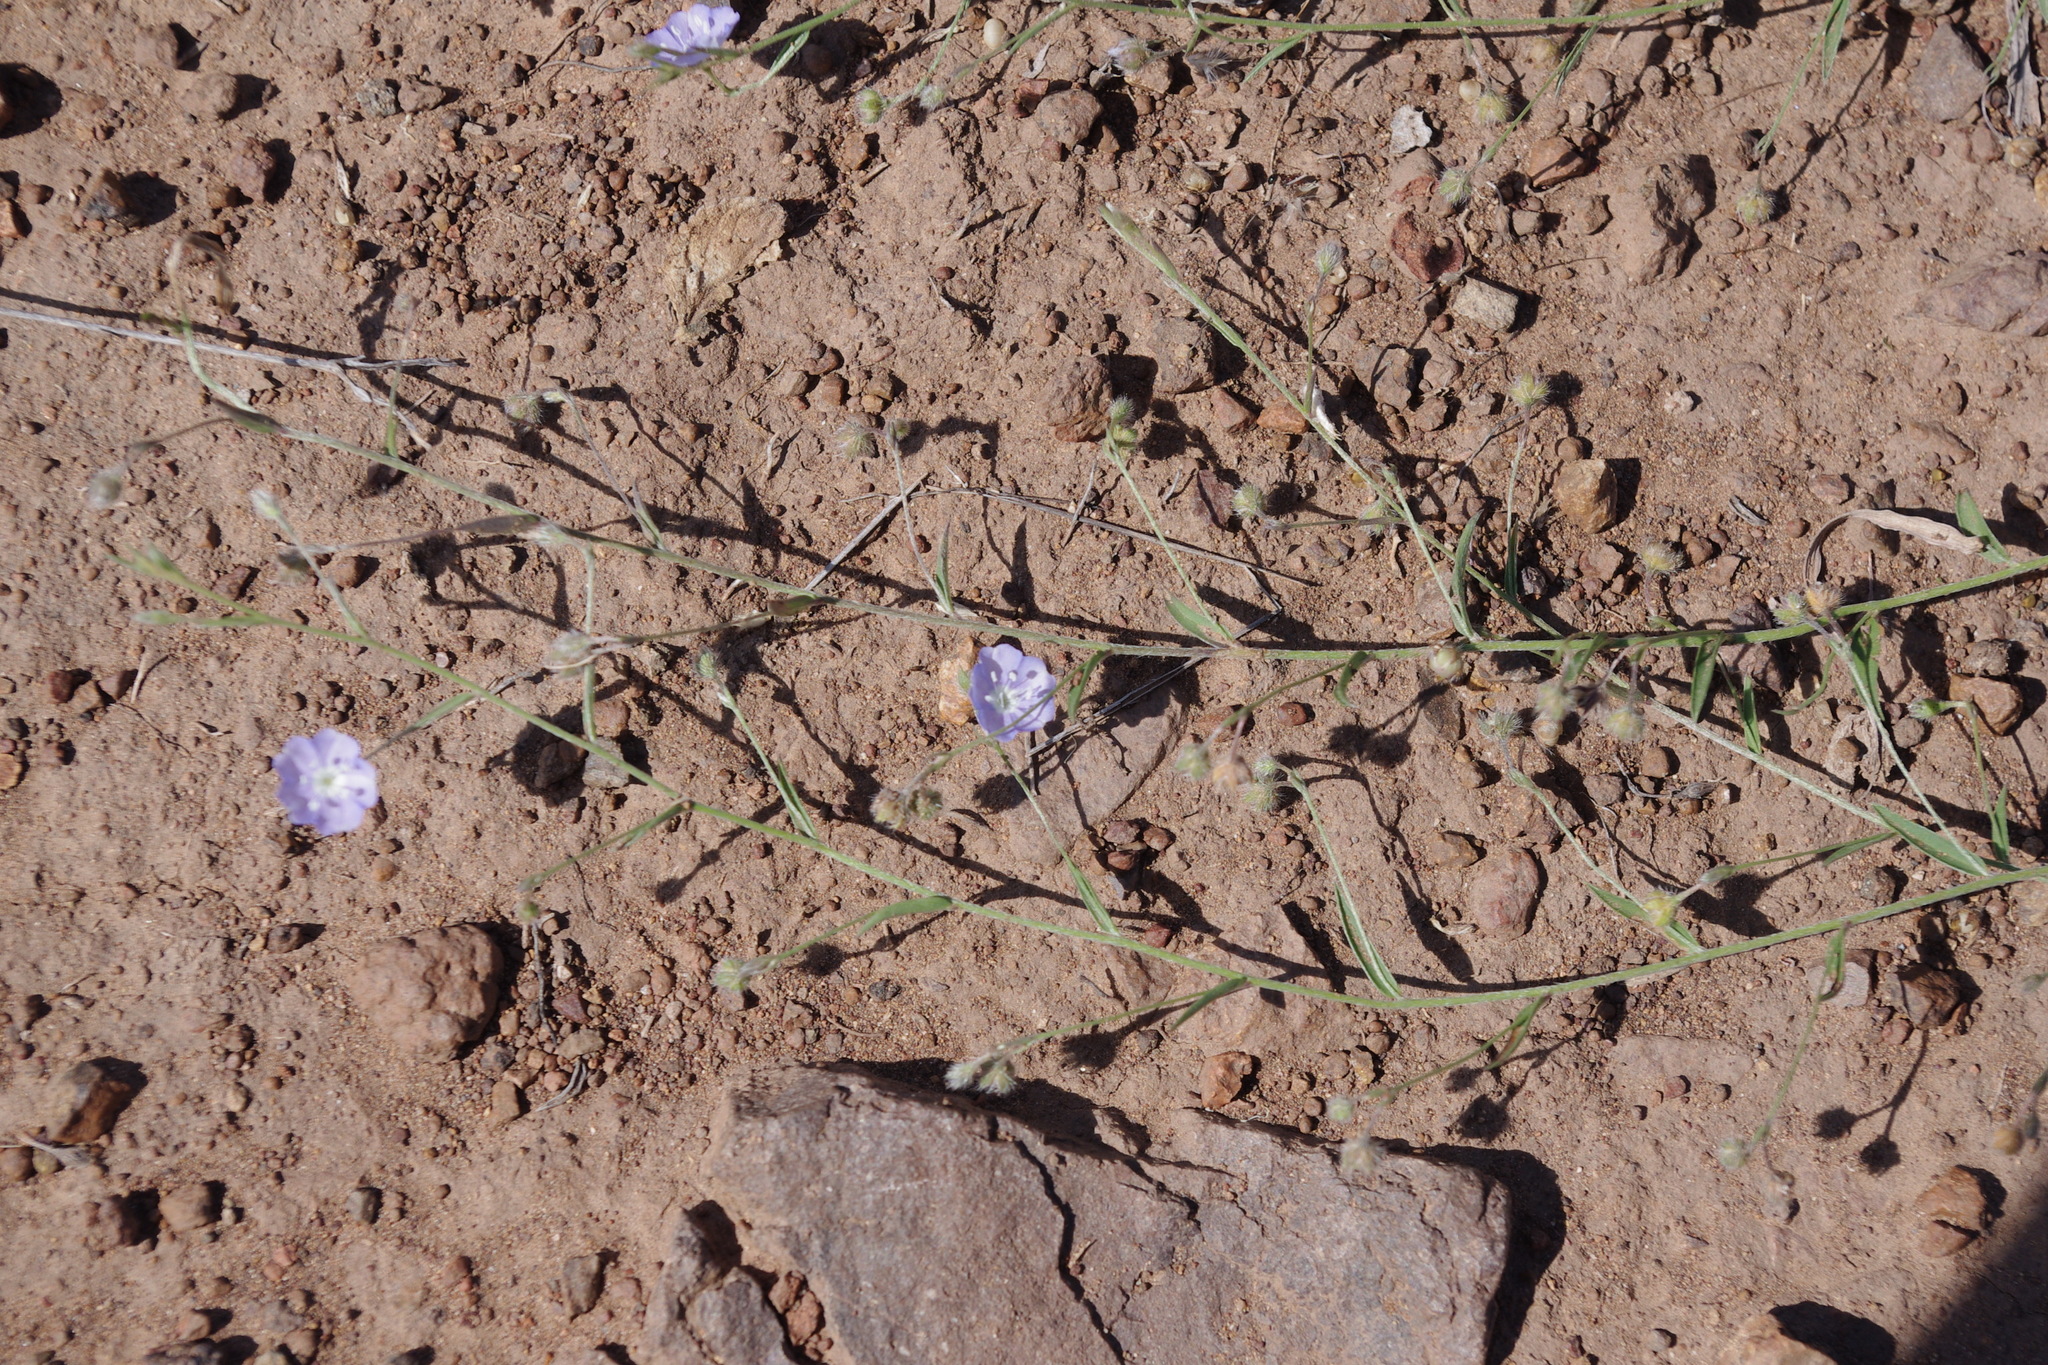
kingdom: Plantae
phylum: Tracheophyta
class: Magnoliopsida
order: Solanales
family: Convolvulaceae
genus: Evolvulus
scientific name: Evolvulus alsinoides
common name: Slender dwarf morning-glory
